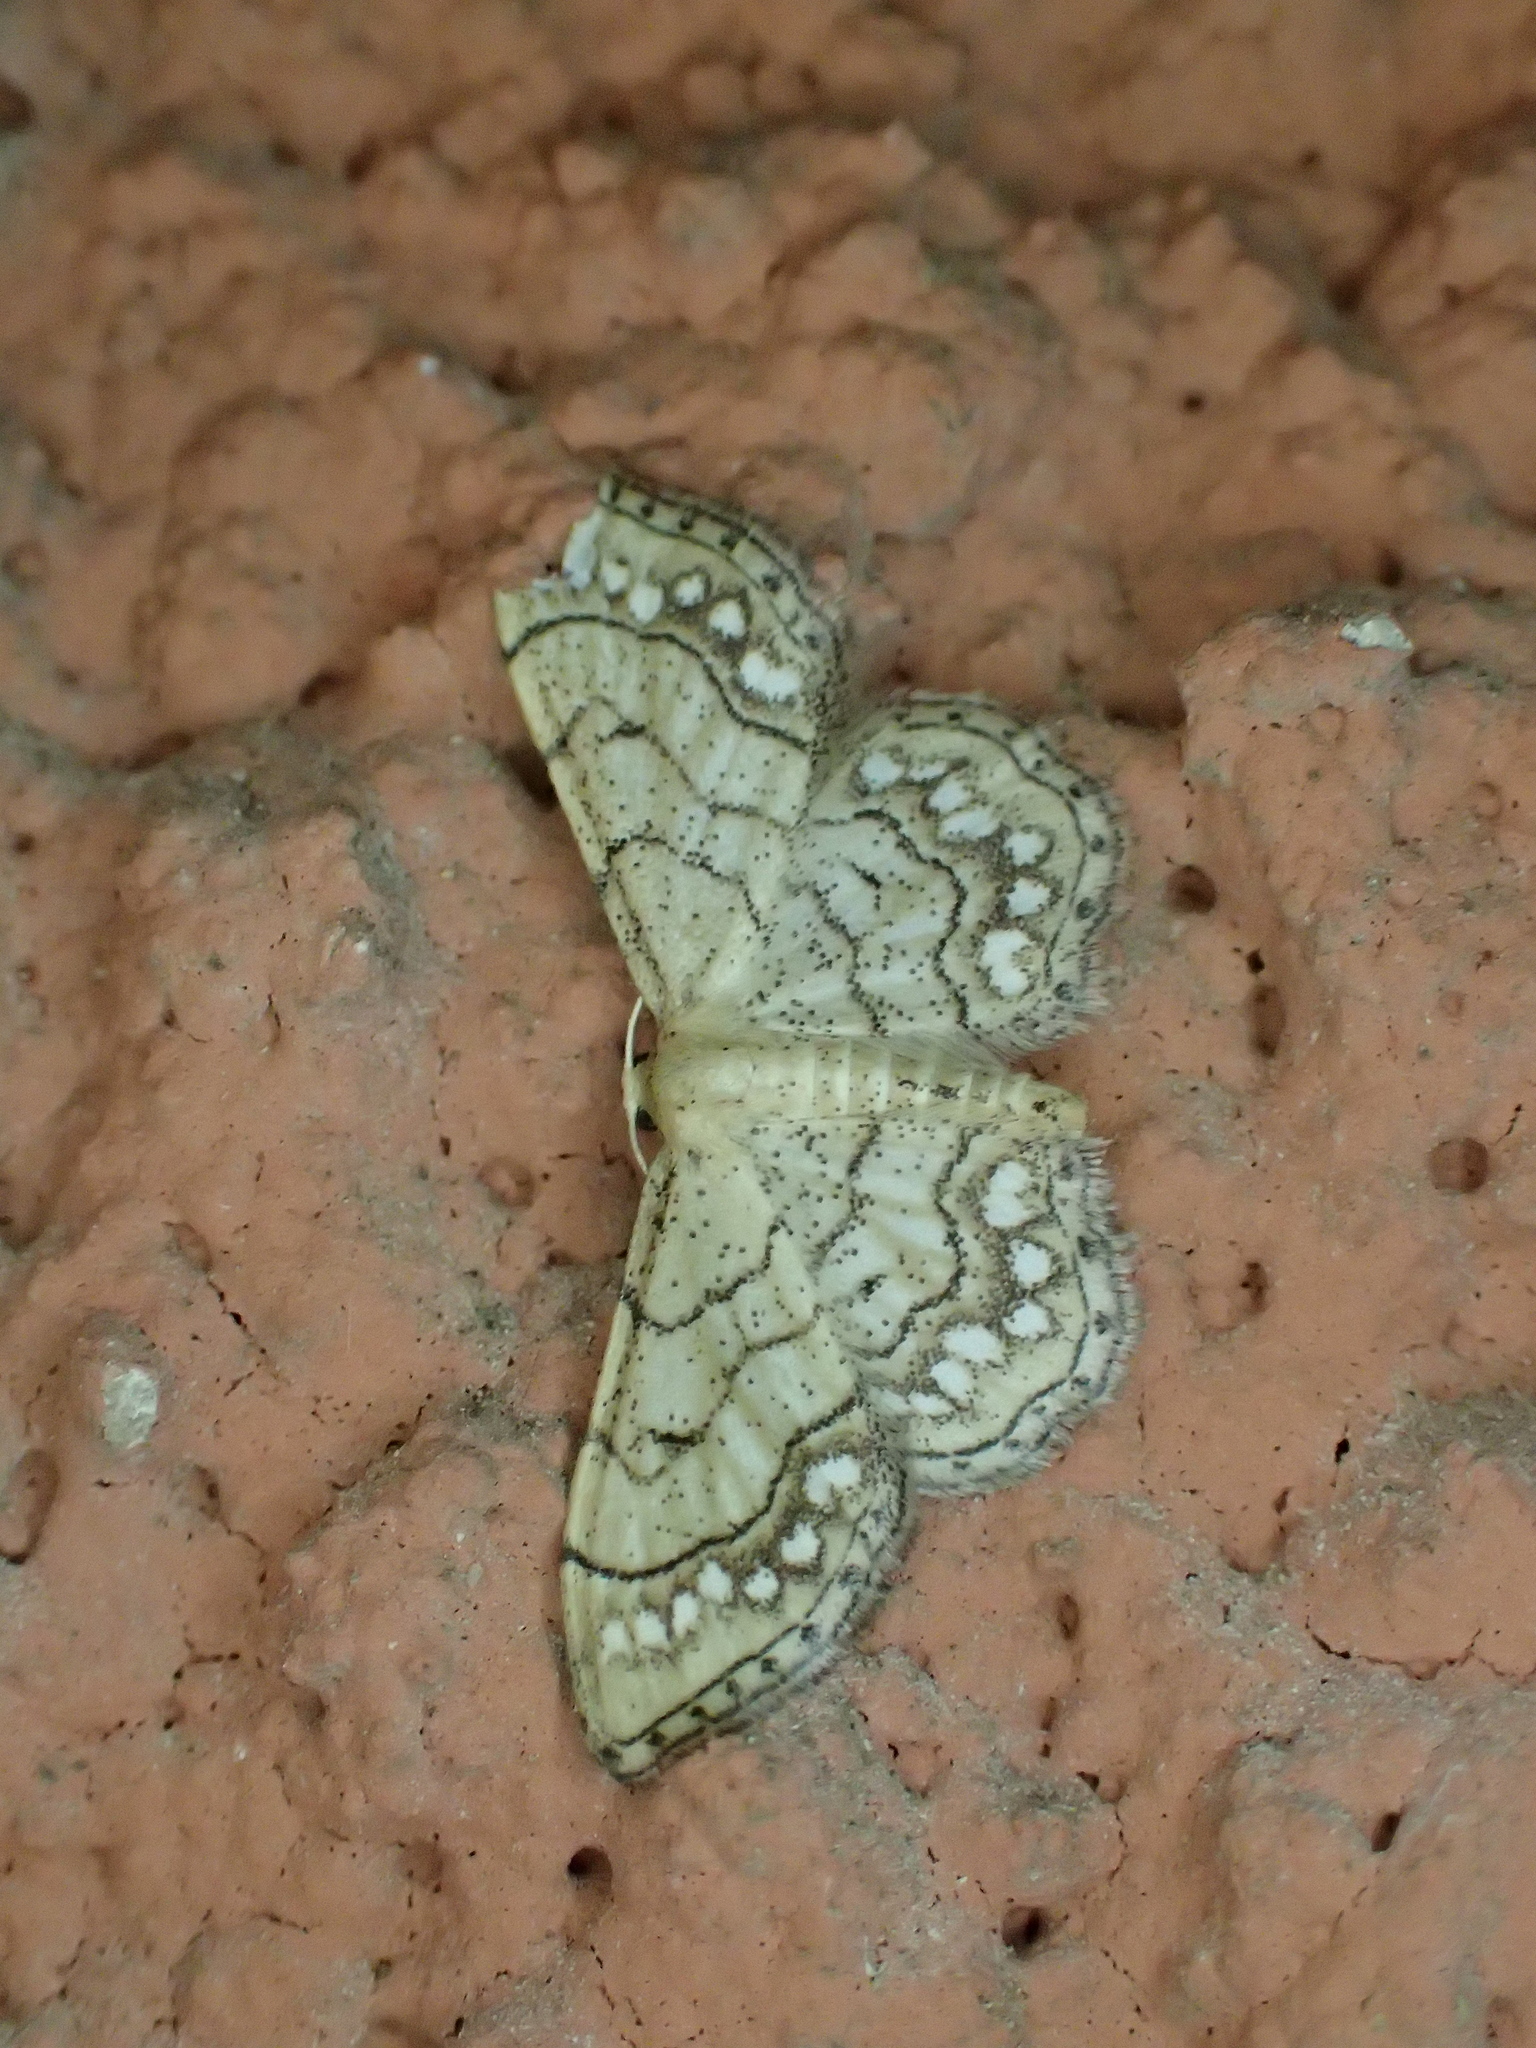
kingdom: Animalia
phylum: Arthropoda
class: Insecta
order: Lepidoptera
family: Geometridae
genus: Idaea
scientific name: Idaea moniliata
